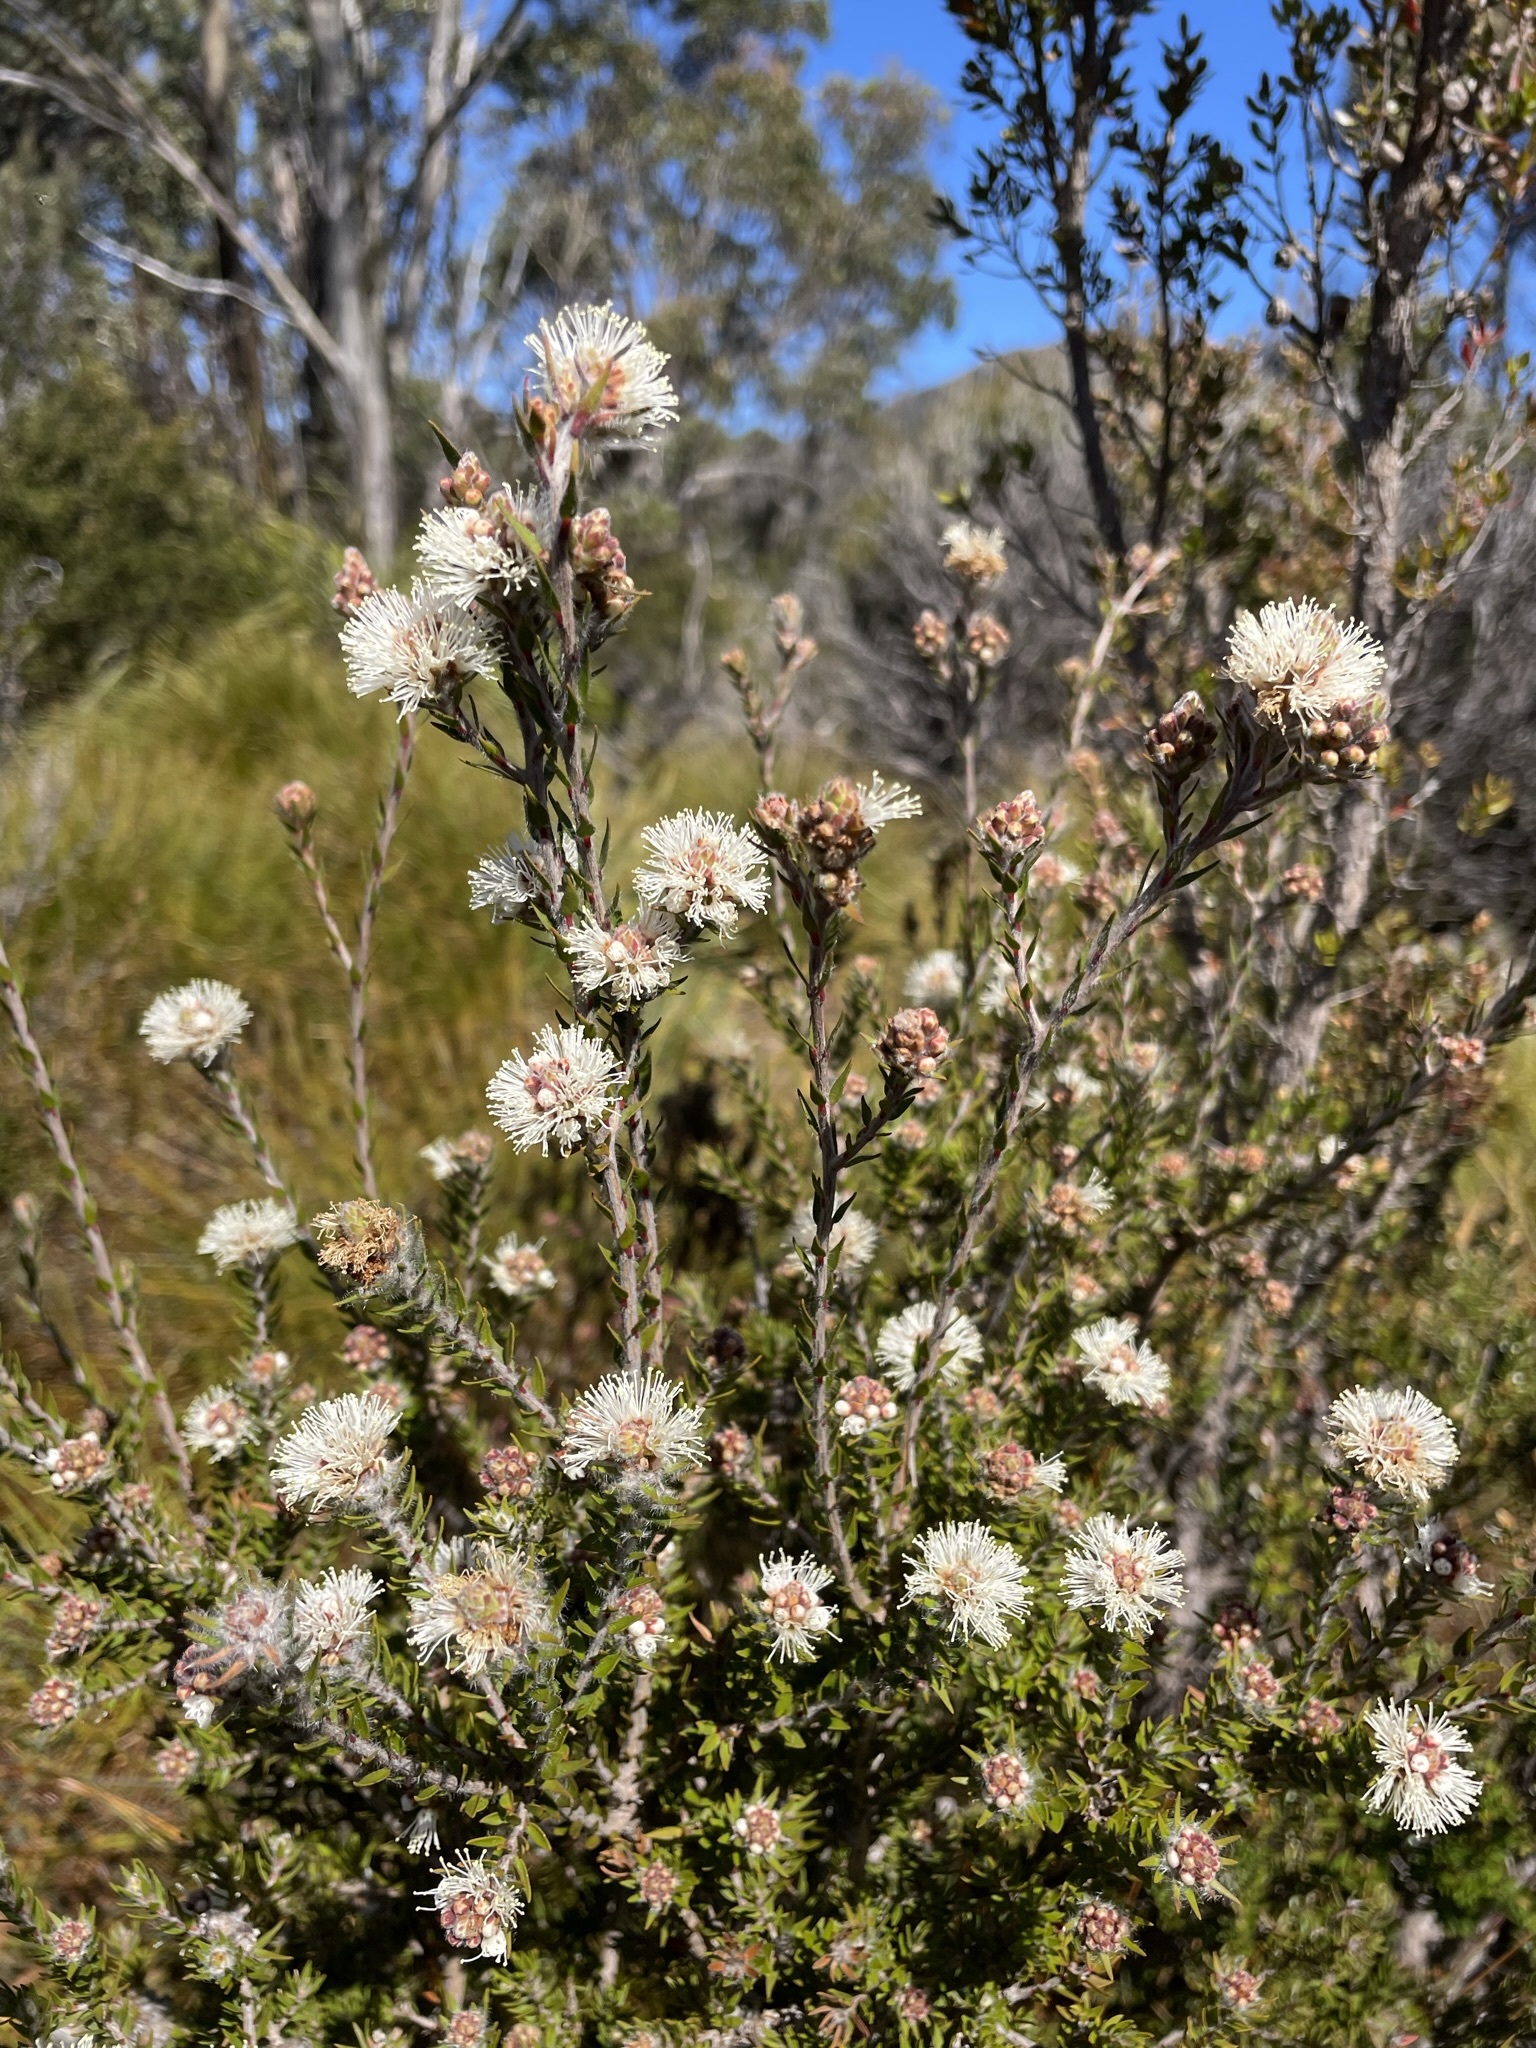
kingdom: Plantae
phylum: Tracheophyta
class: Magnoliopsida
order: Myrtales
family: Myrtaceae
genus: Melaleuca
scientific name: Melaleuca squamea
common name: Swamp melaleuca
